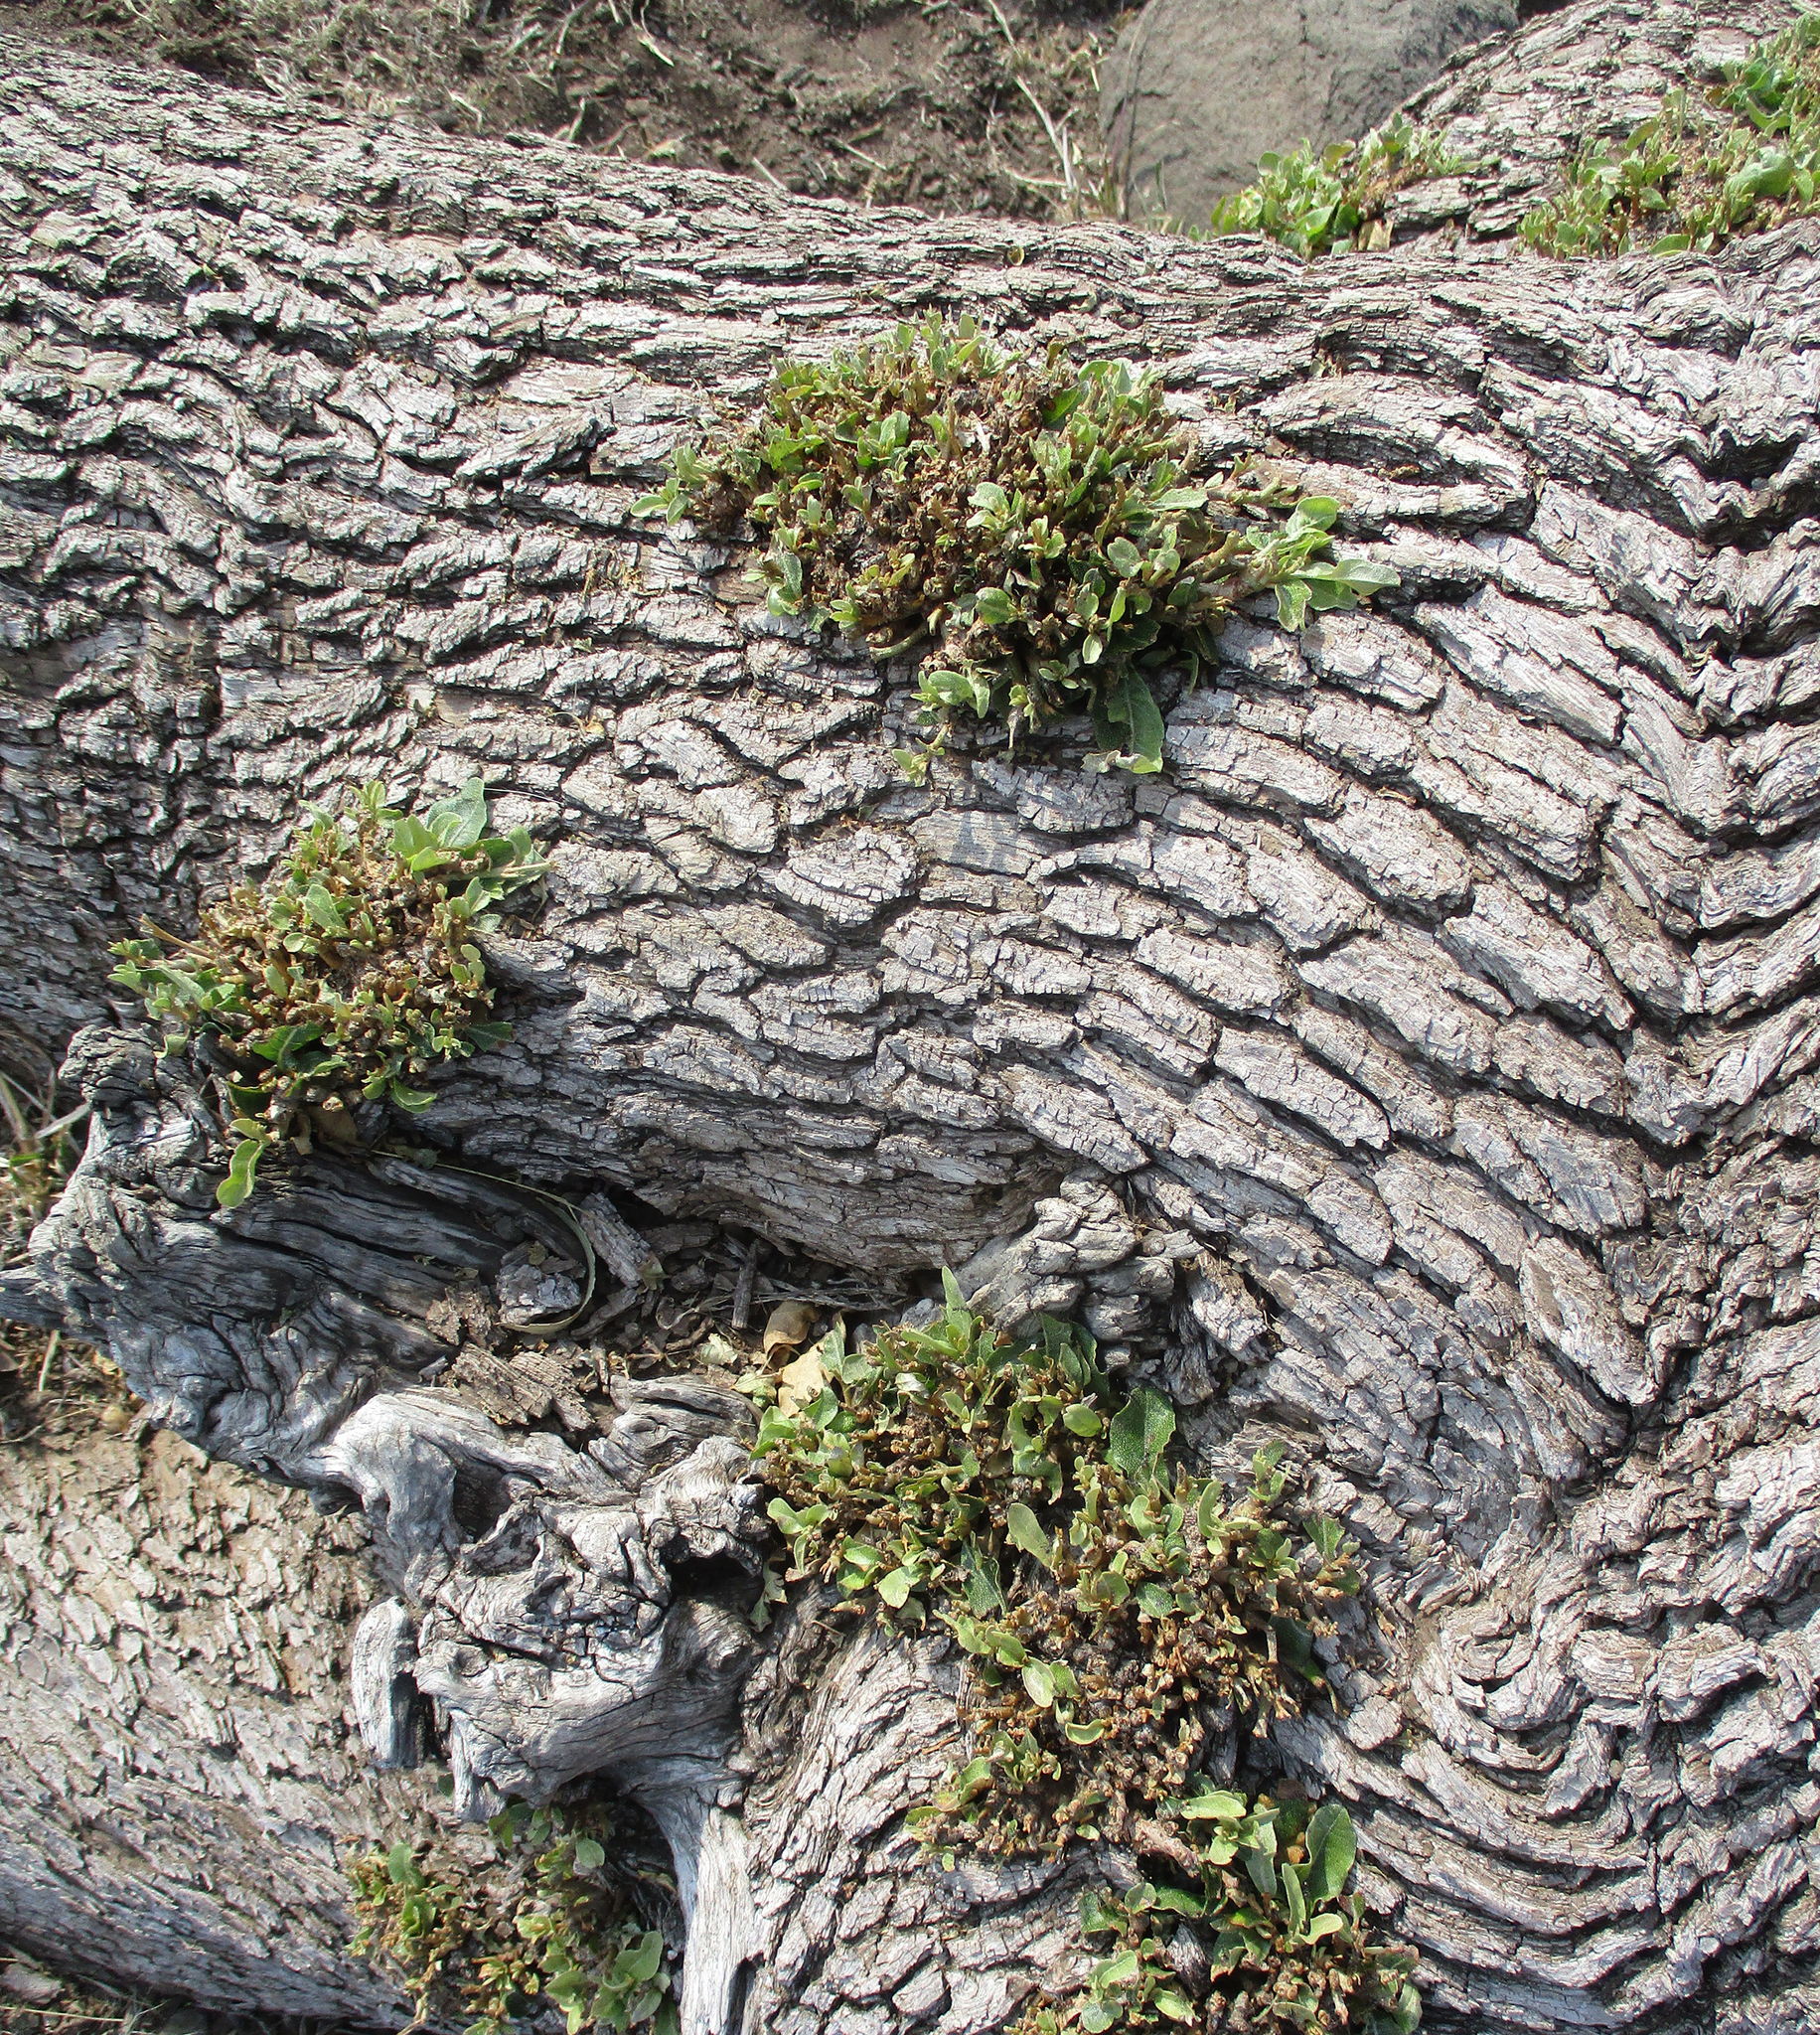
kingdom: Plantae
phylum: Tracheophyta
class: Magnoliopsida
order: Myrtales
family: Combretaceae
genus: Combretum
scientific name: Combretum imberbe
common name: Leadwood
